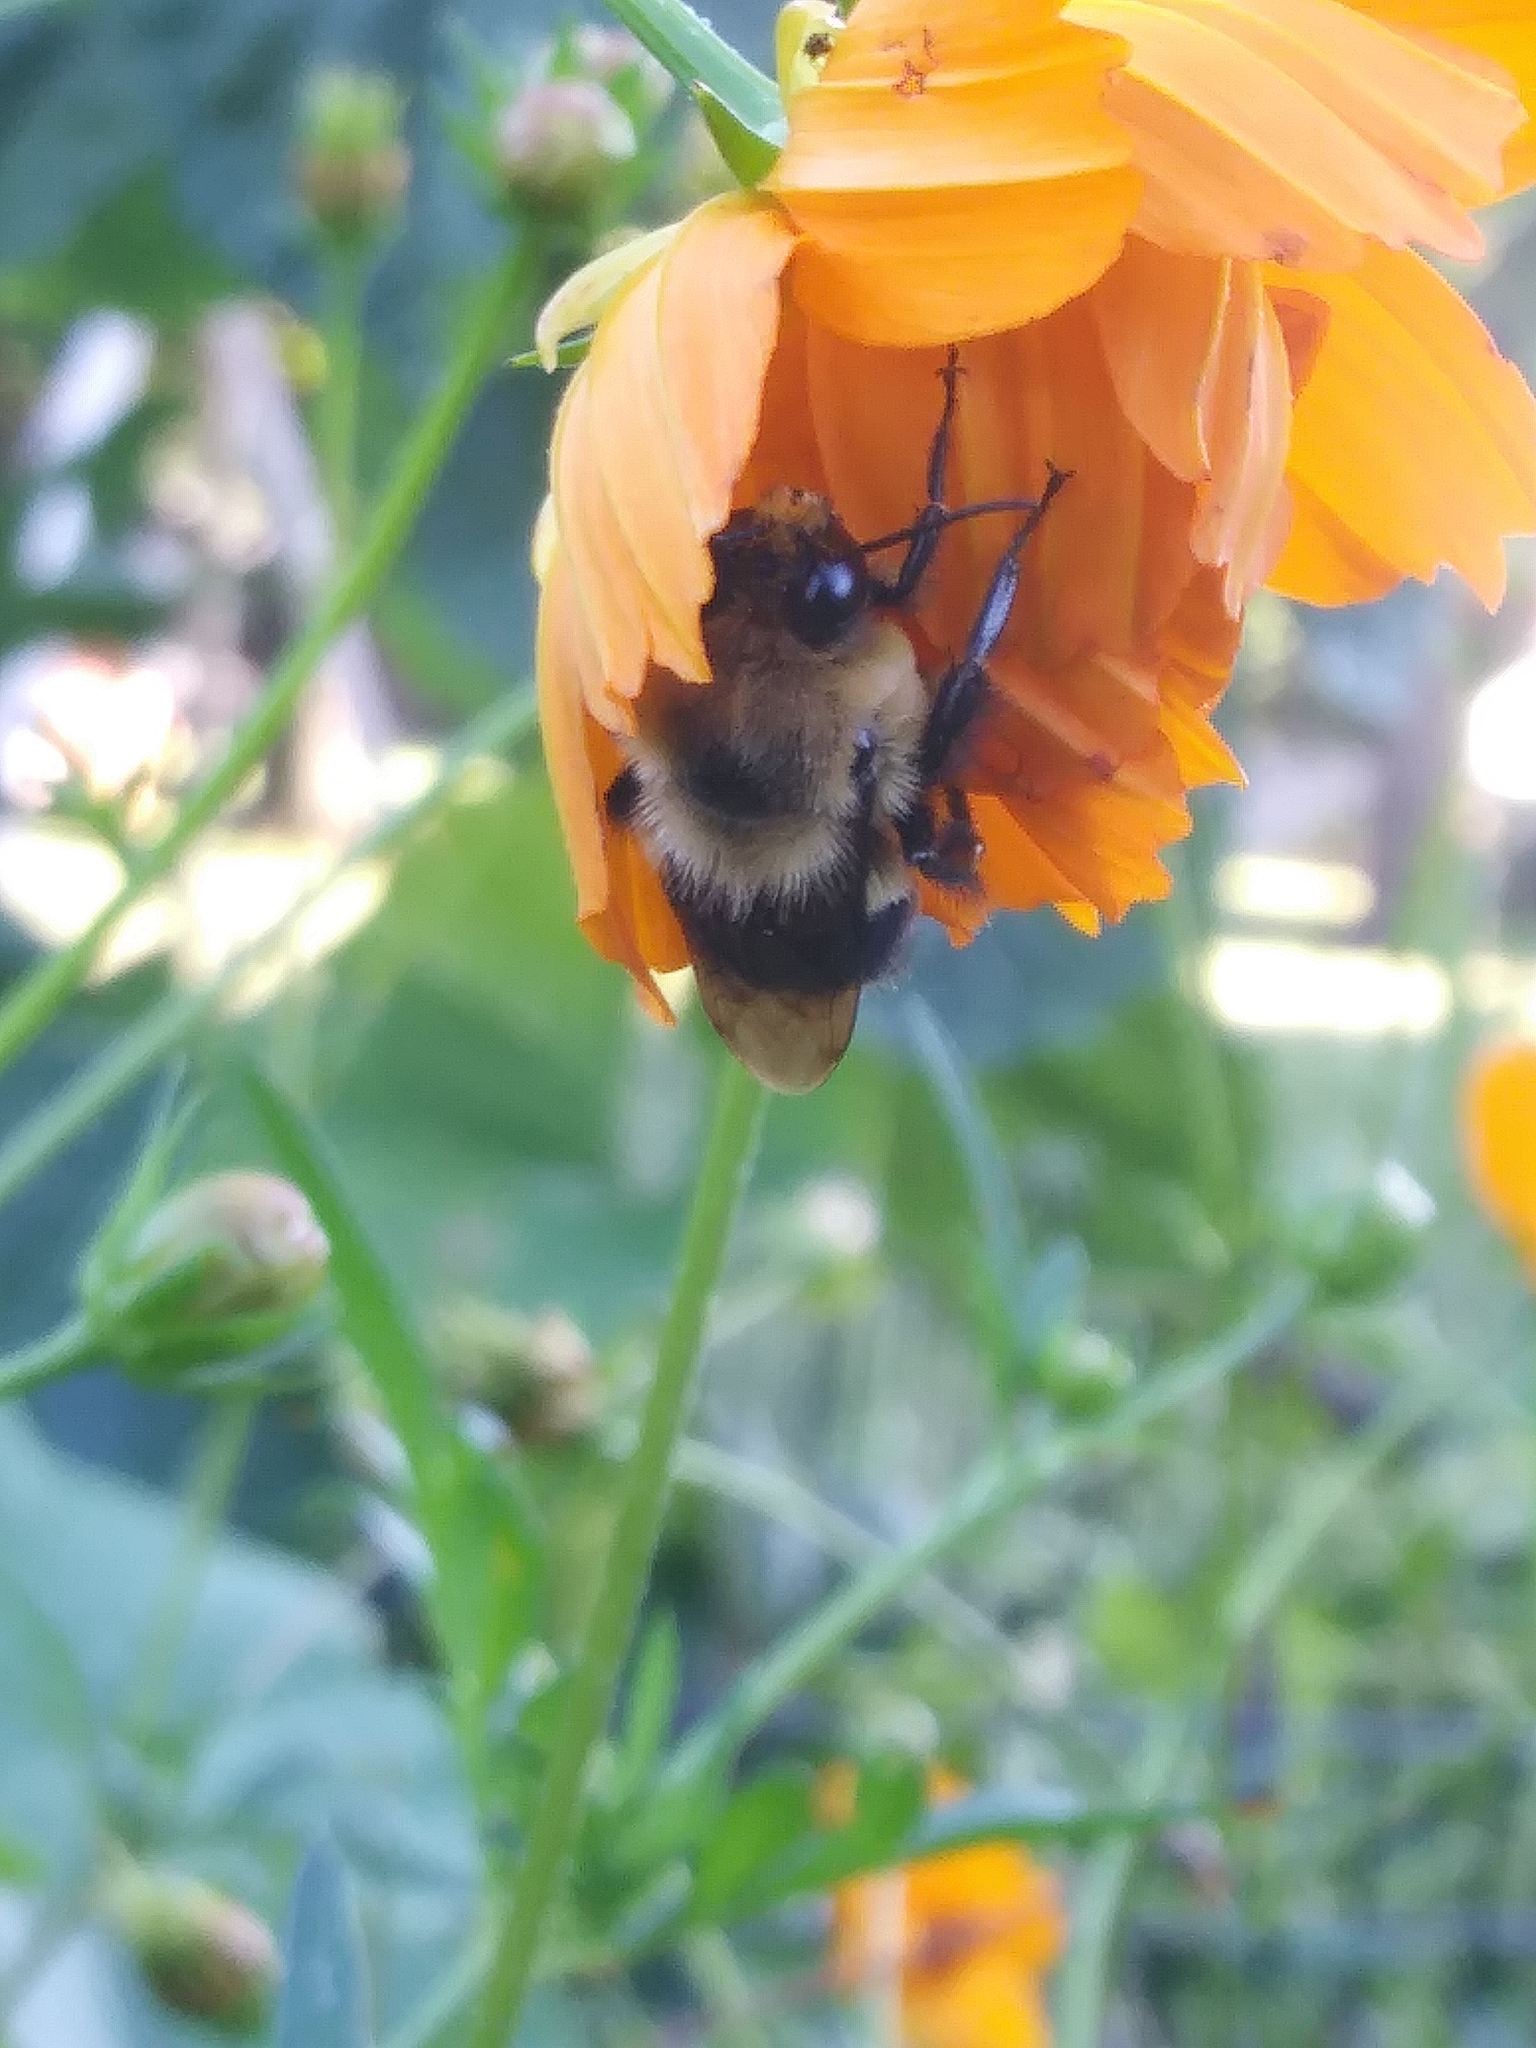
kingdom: Animalia
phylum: Arthropoda
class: Insecta
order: Hymenoptera
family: Apidae
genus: Bombus
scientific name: Bombus griseocollis
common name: Brown-belted bumble bee
